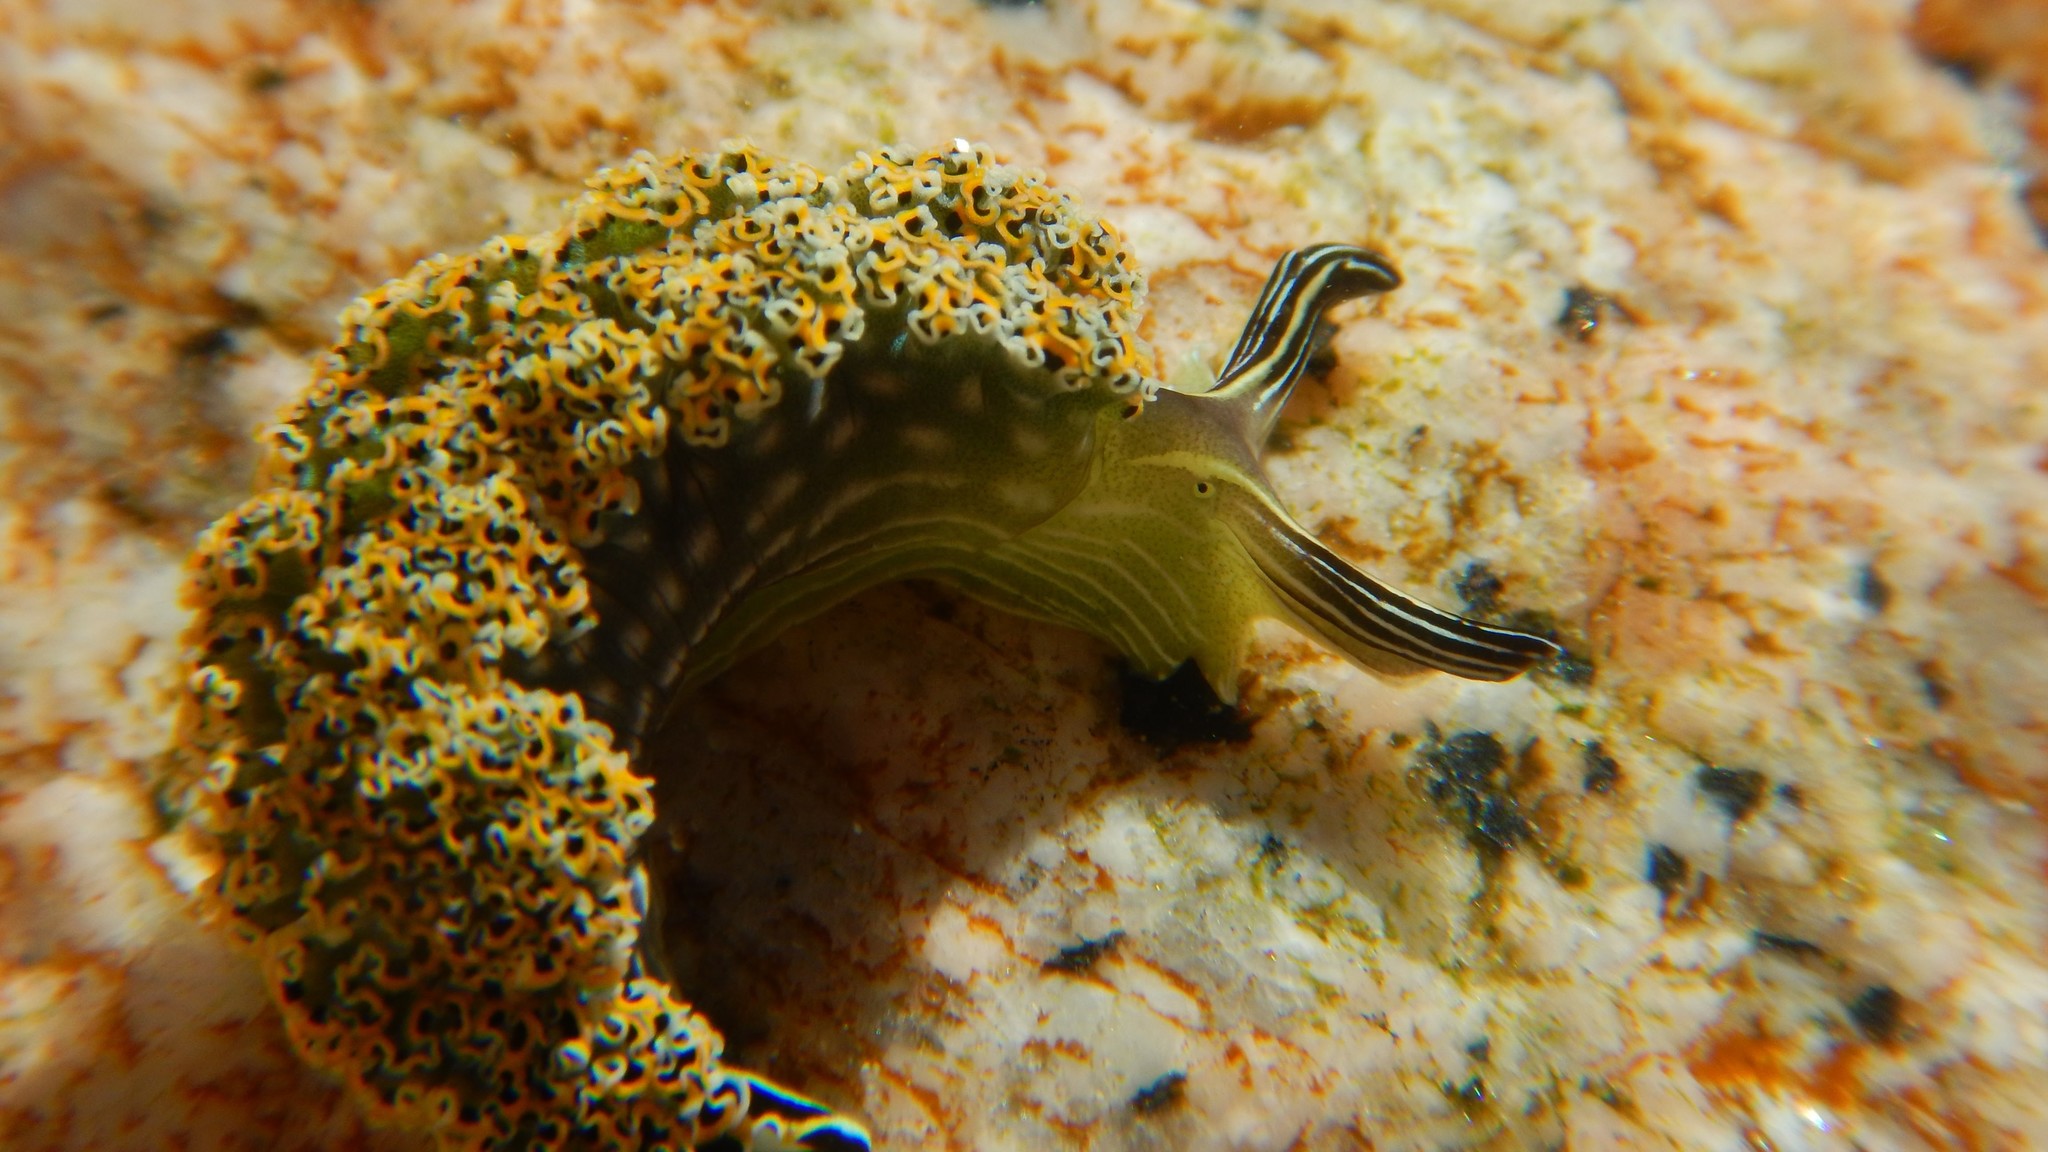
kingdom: Animalia
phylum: Mollusca
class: Gastropoda
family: Plakobranchidae
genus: Elysia
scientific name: Elysia diomedea
